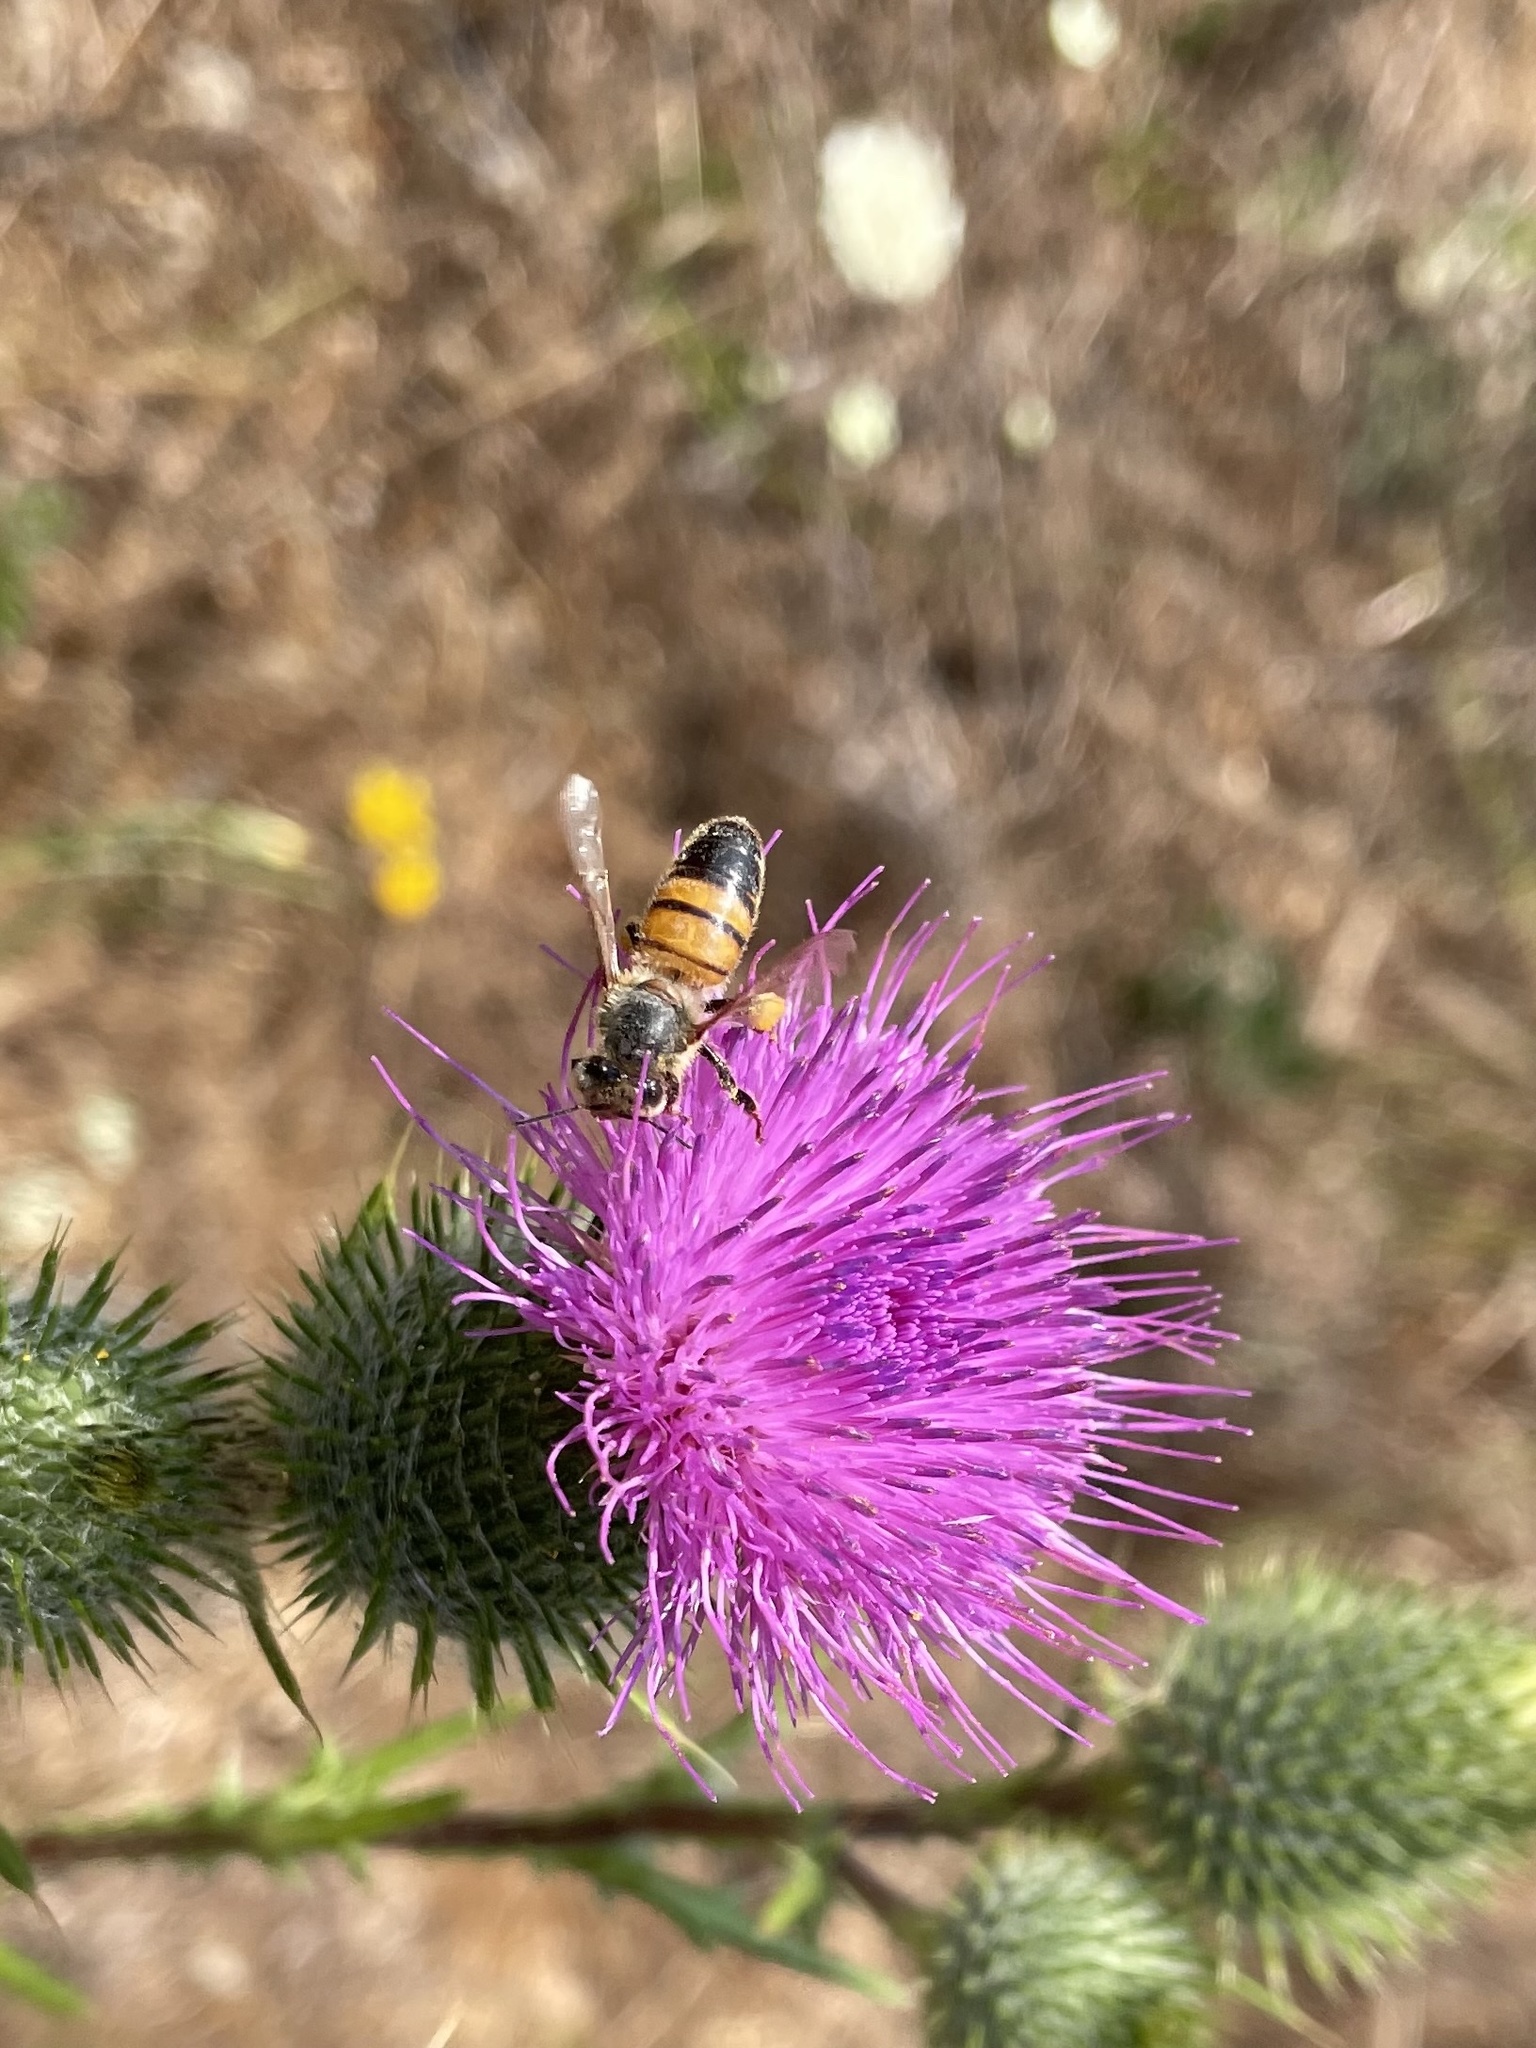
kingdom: Animalia
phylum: Arthropoda
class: Insecta
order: Hymenoptera
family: Apidae
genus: Apis
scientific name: Apis mellifera
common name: Honey bee
